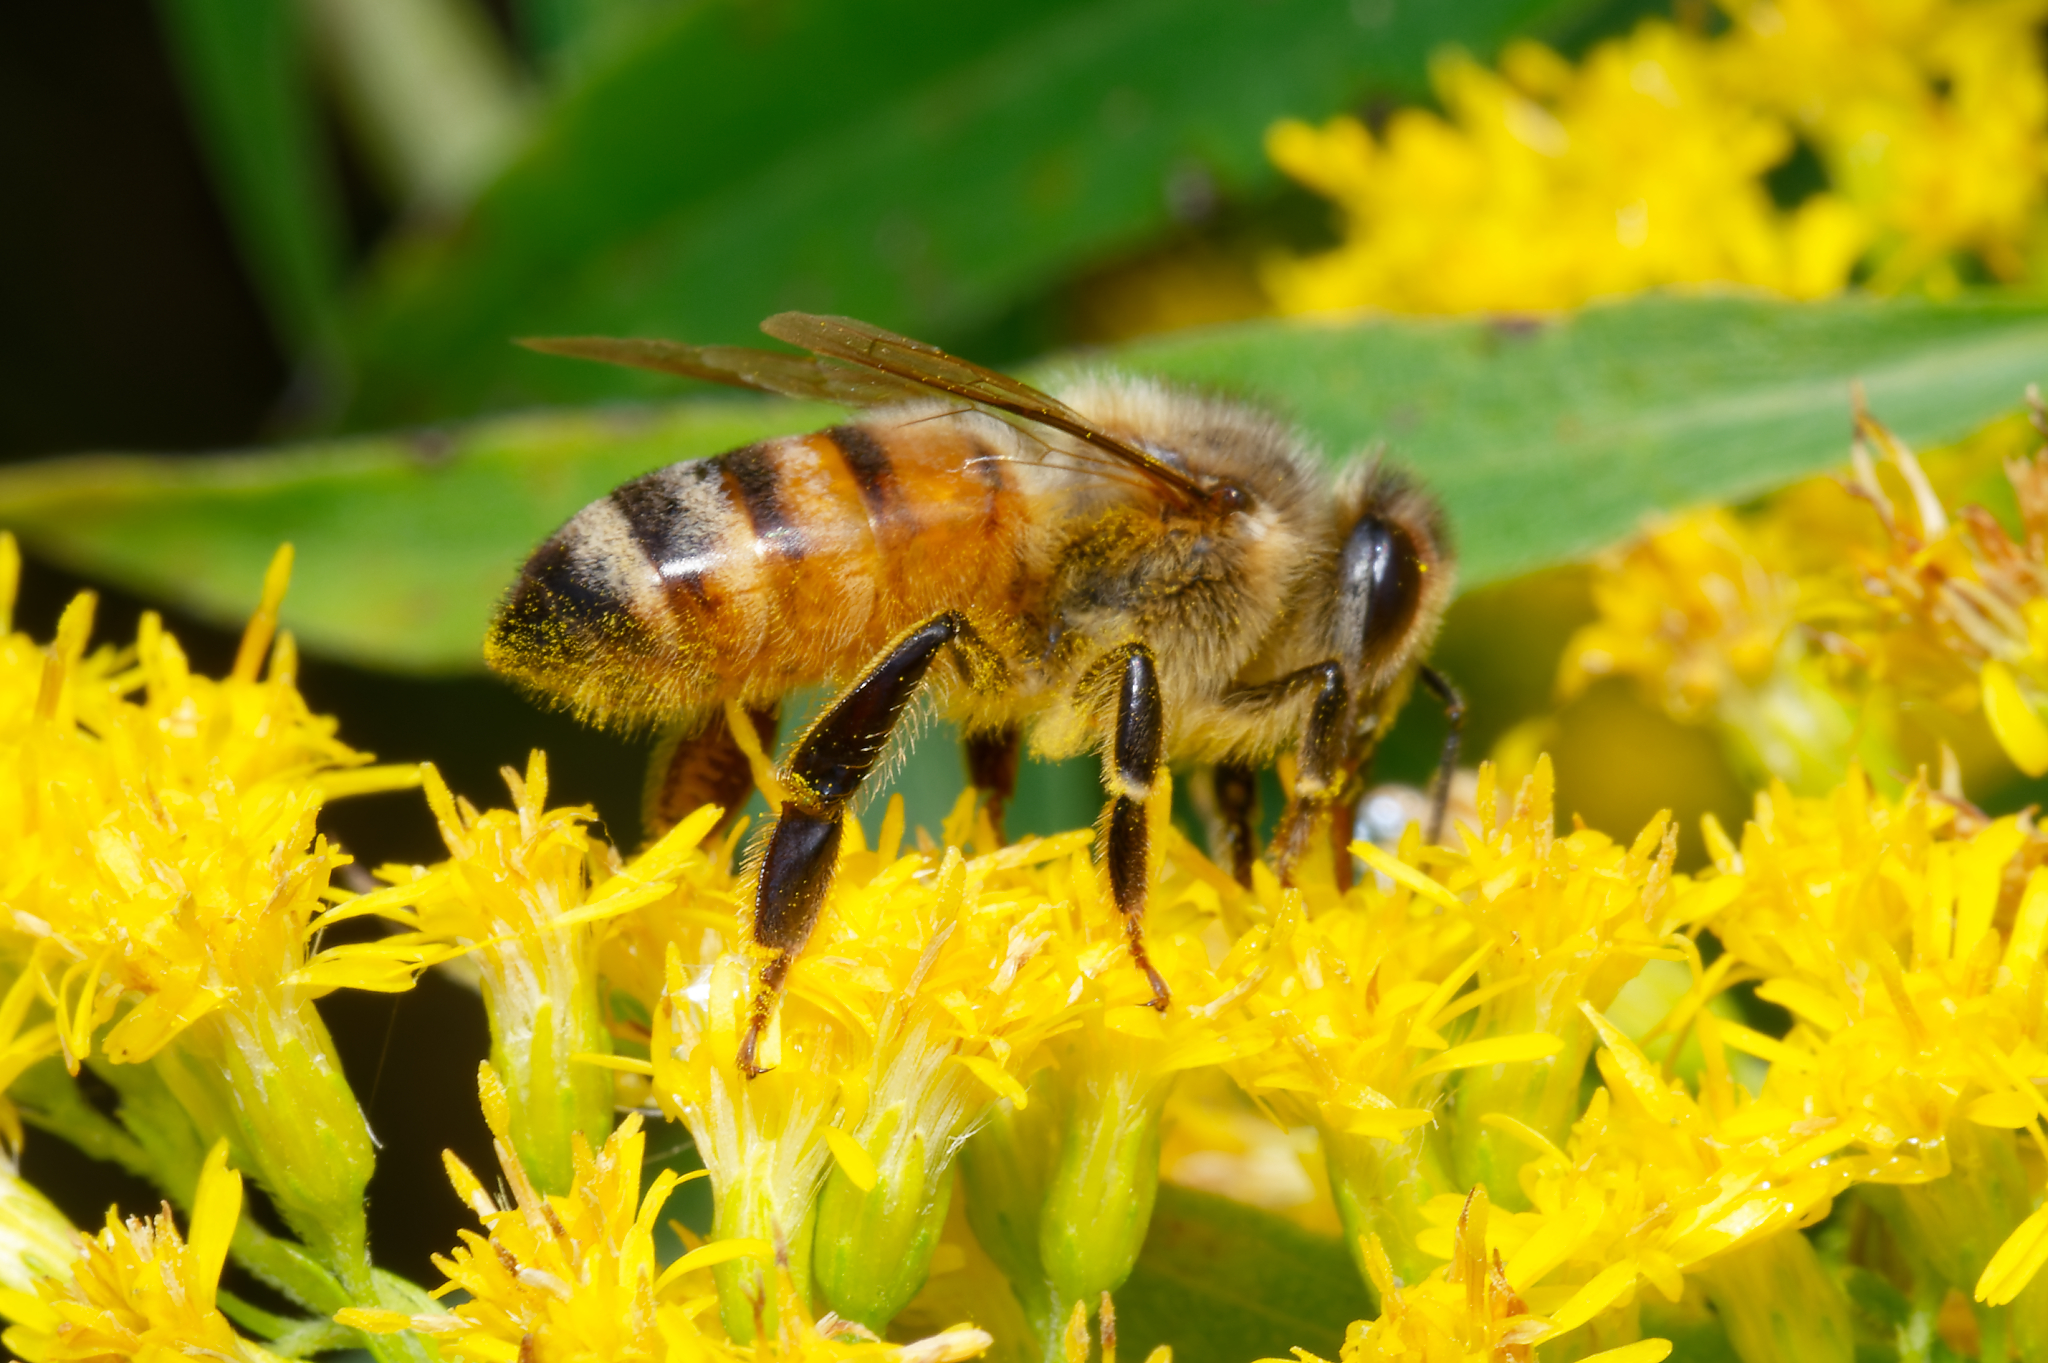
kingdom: Animalia
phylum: Arthropoda
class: Insecta
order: Hymenoptera
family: Apidae
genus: Apis
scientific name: Apis mellifera
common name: Honey bee
